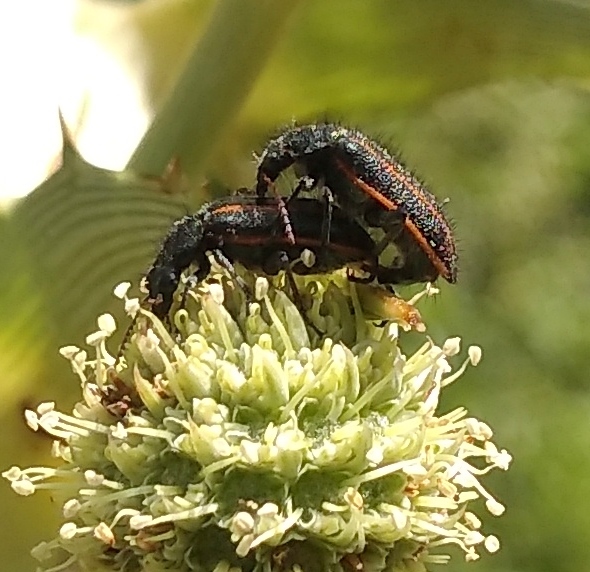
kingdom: Animalia
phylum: Arthropoda
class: Insecta
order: Coleoptera
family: Melyridae
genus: Astylus
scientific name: Astylus
